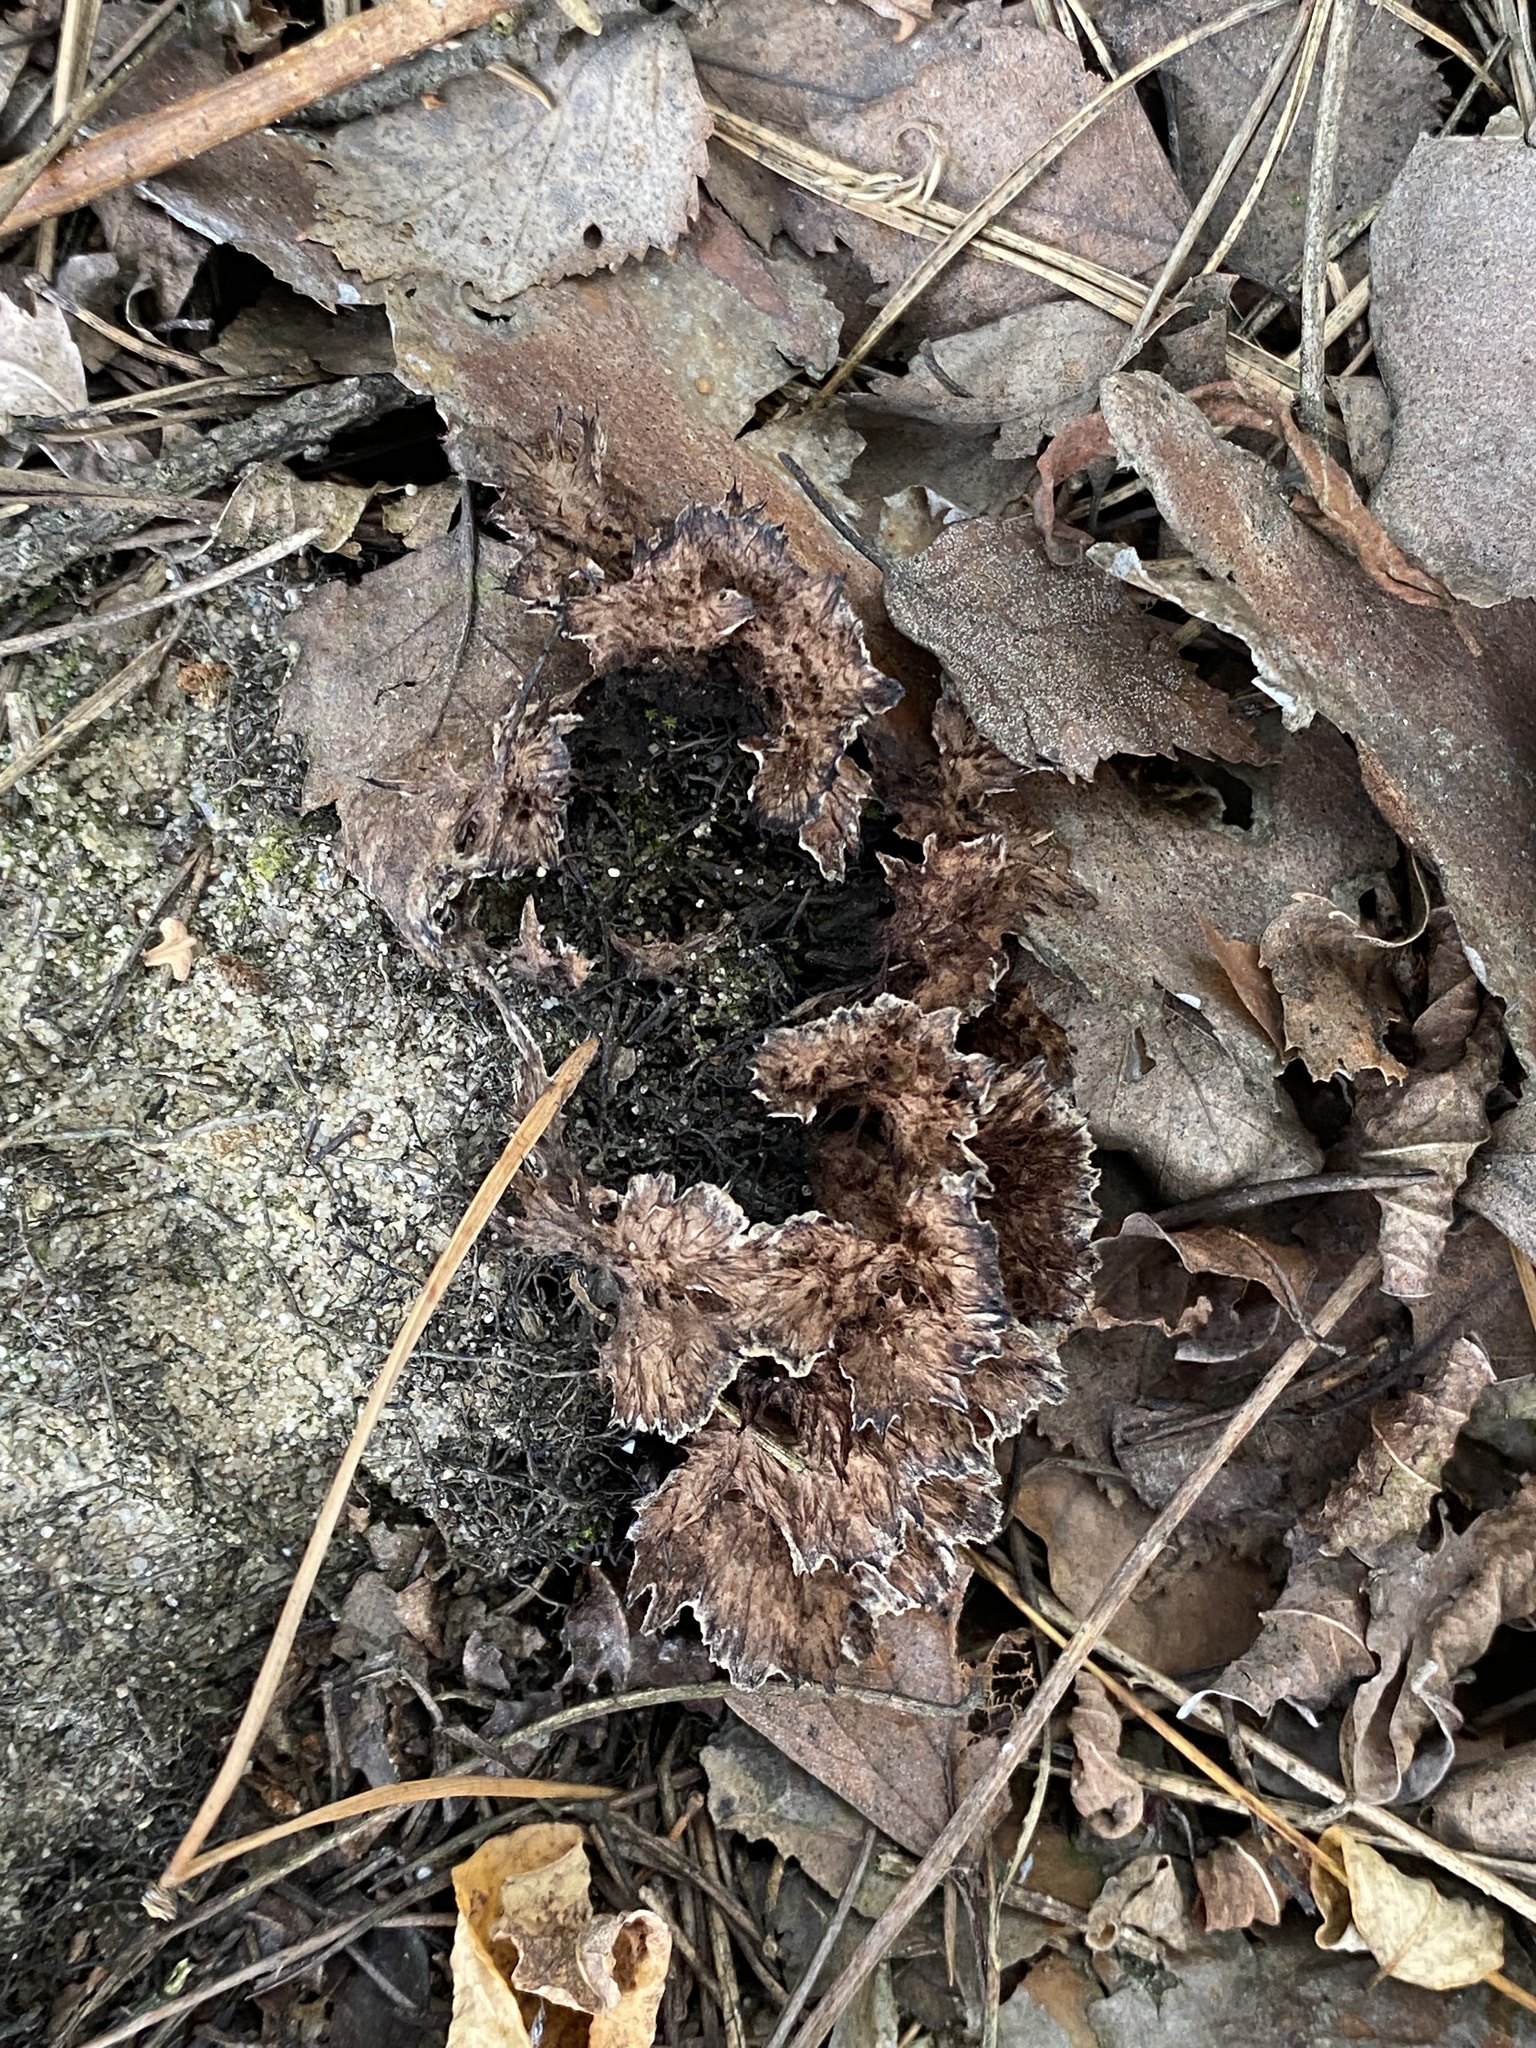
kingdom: Fungi
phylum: Basidiomycota
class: Agaricomycetes
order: Thelephorales
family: Thelephoraceae
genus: Thelephora
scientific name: Thelephora terrestris
